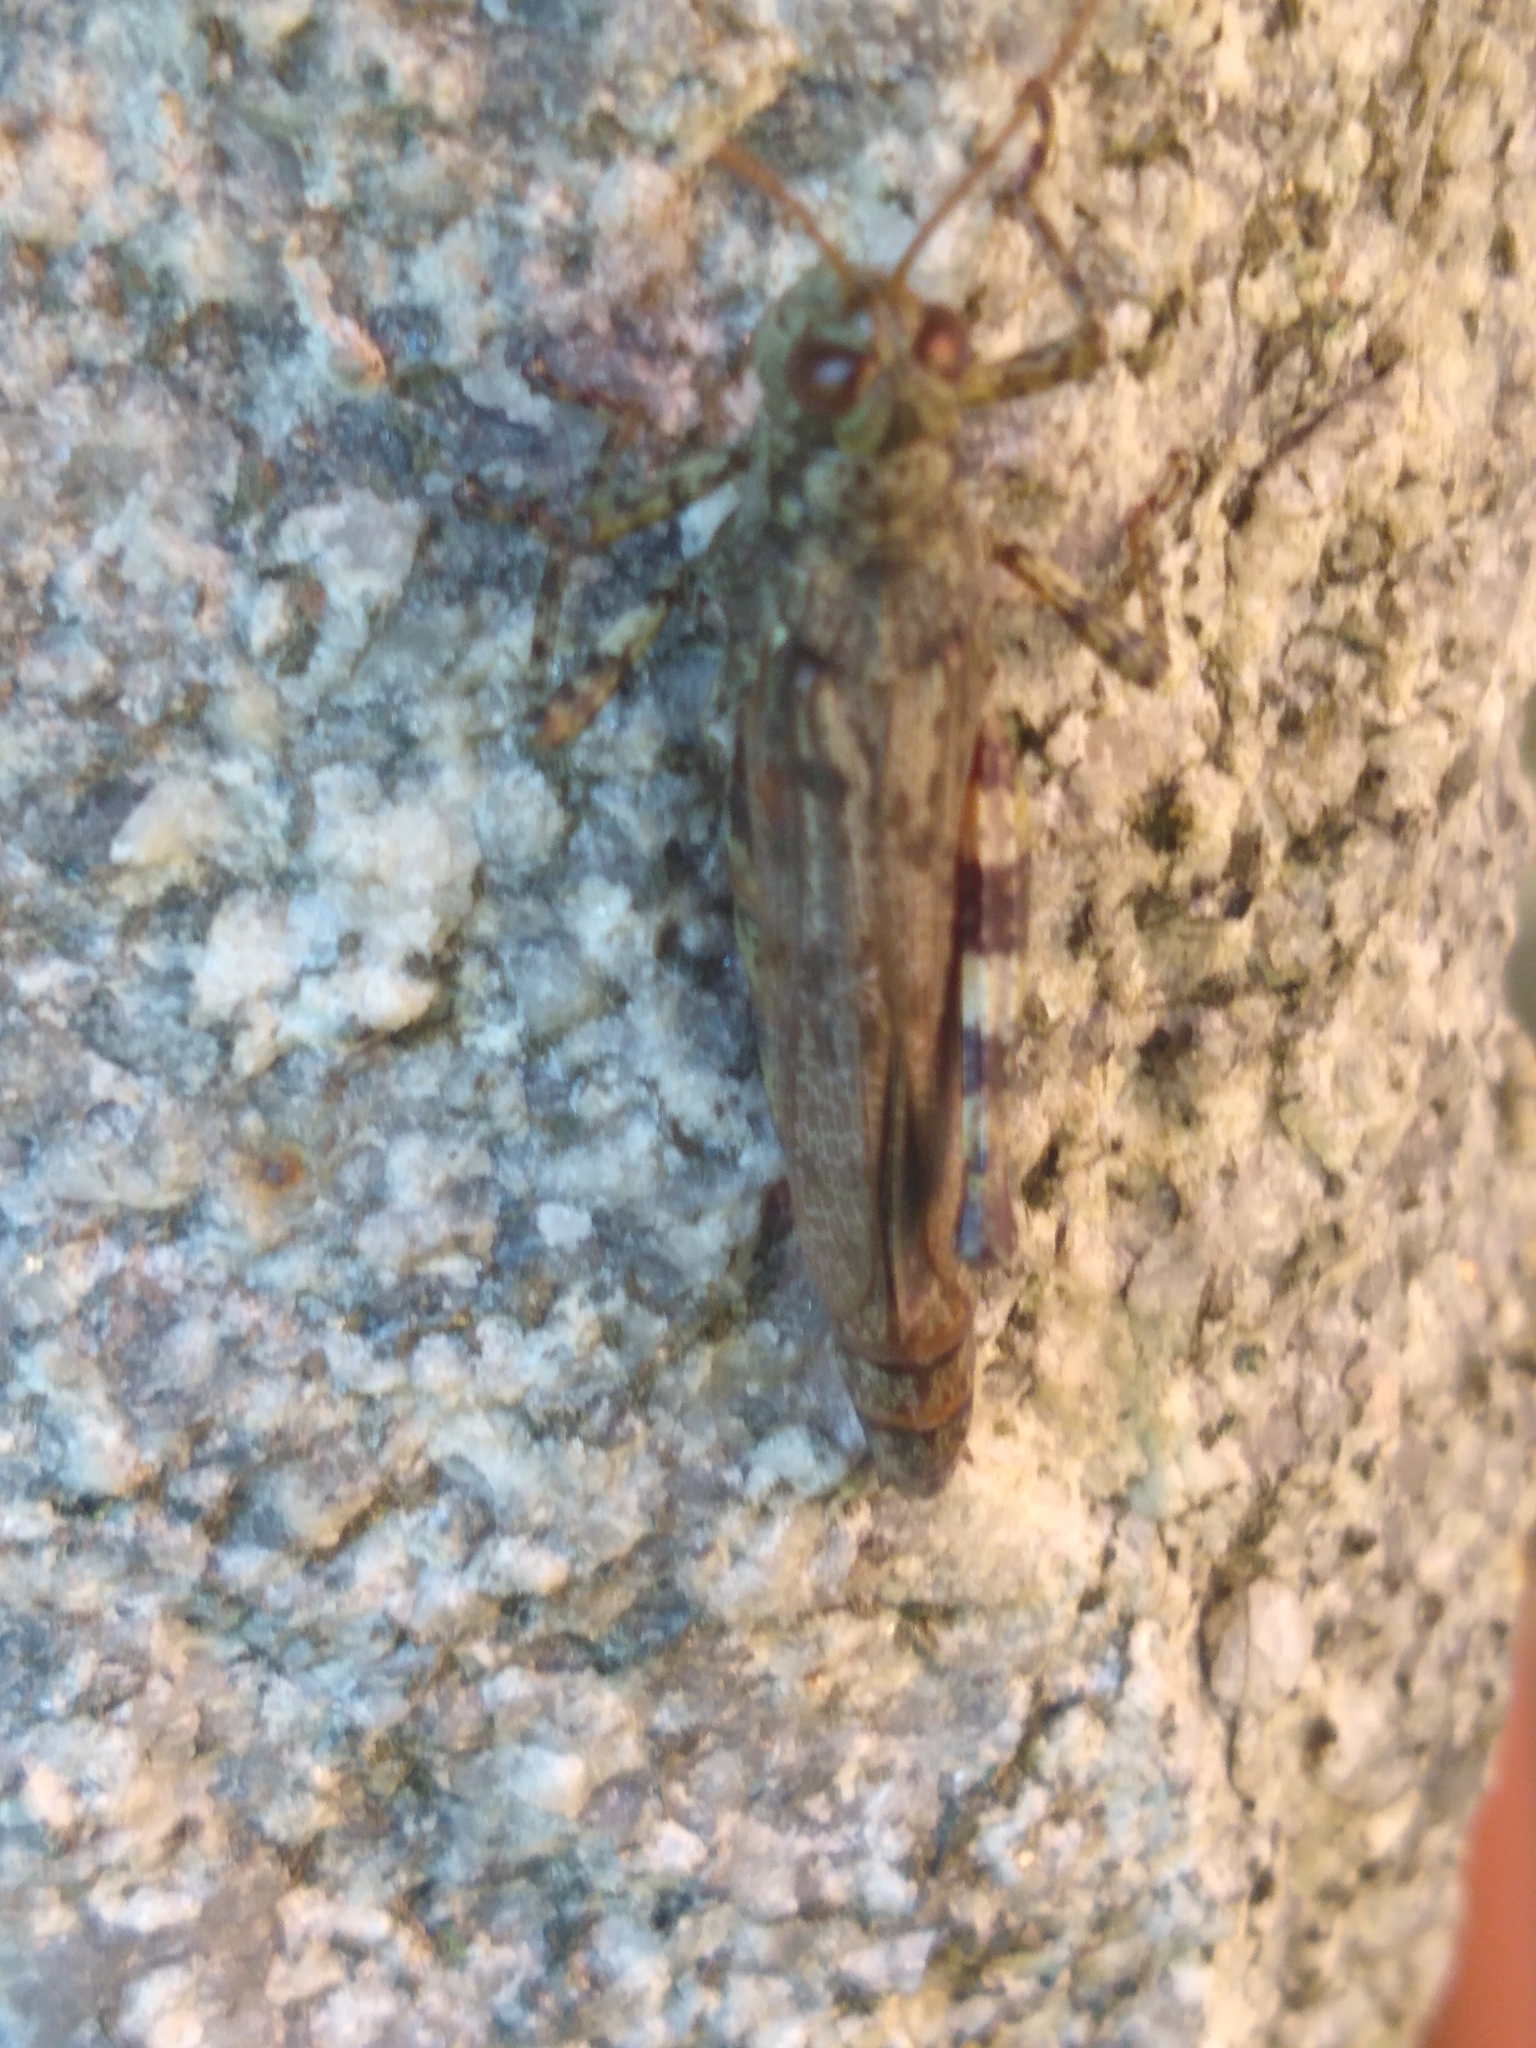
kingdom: Animalia
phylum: Arthropoda
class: Insecta
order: Orthoptera
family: Acrididae
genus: Melanoplus
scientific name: Melanoplus punctulatus
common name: Pine-tree spur-throat grasshopper
